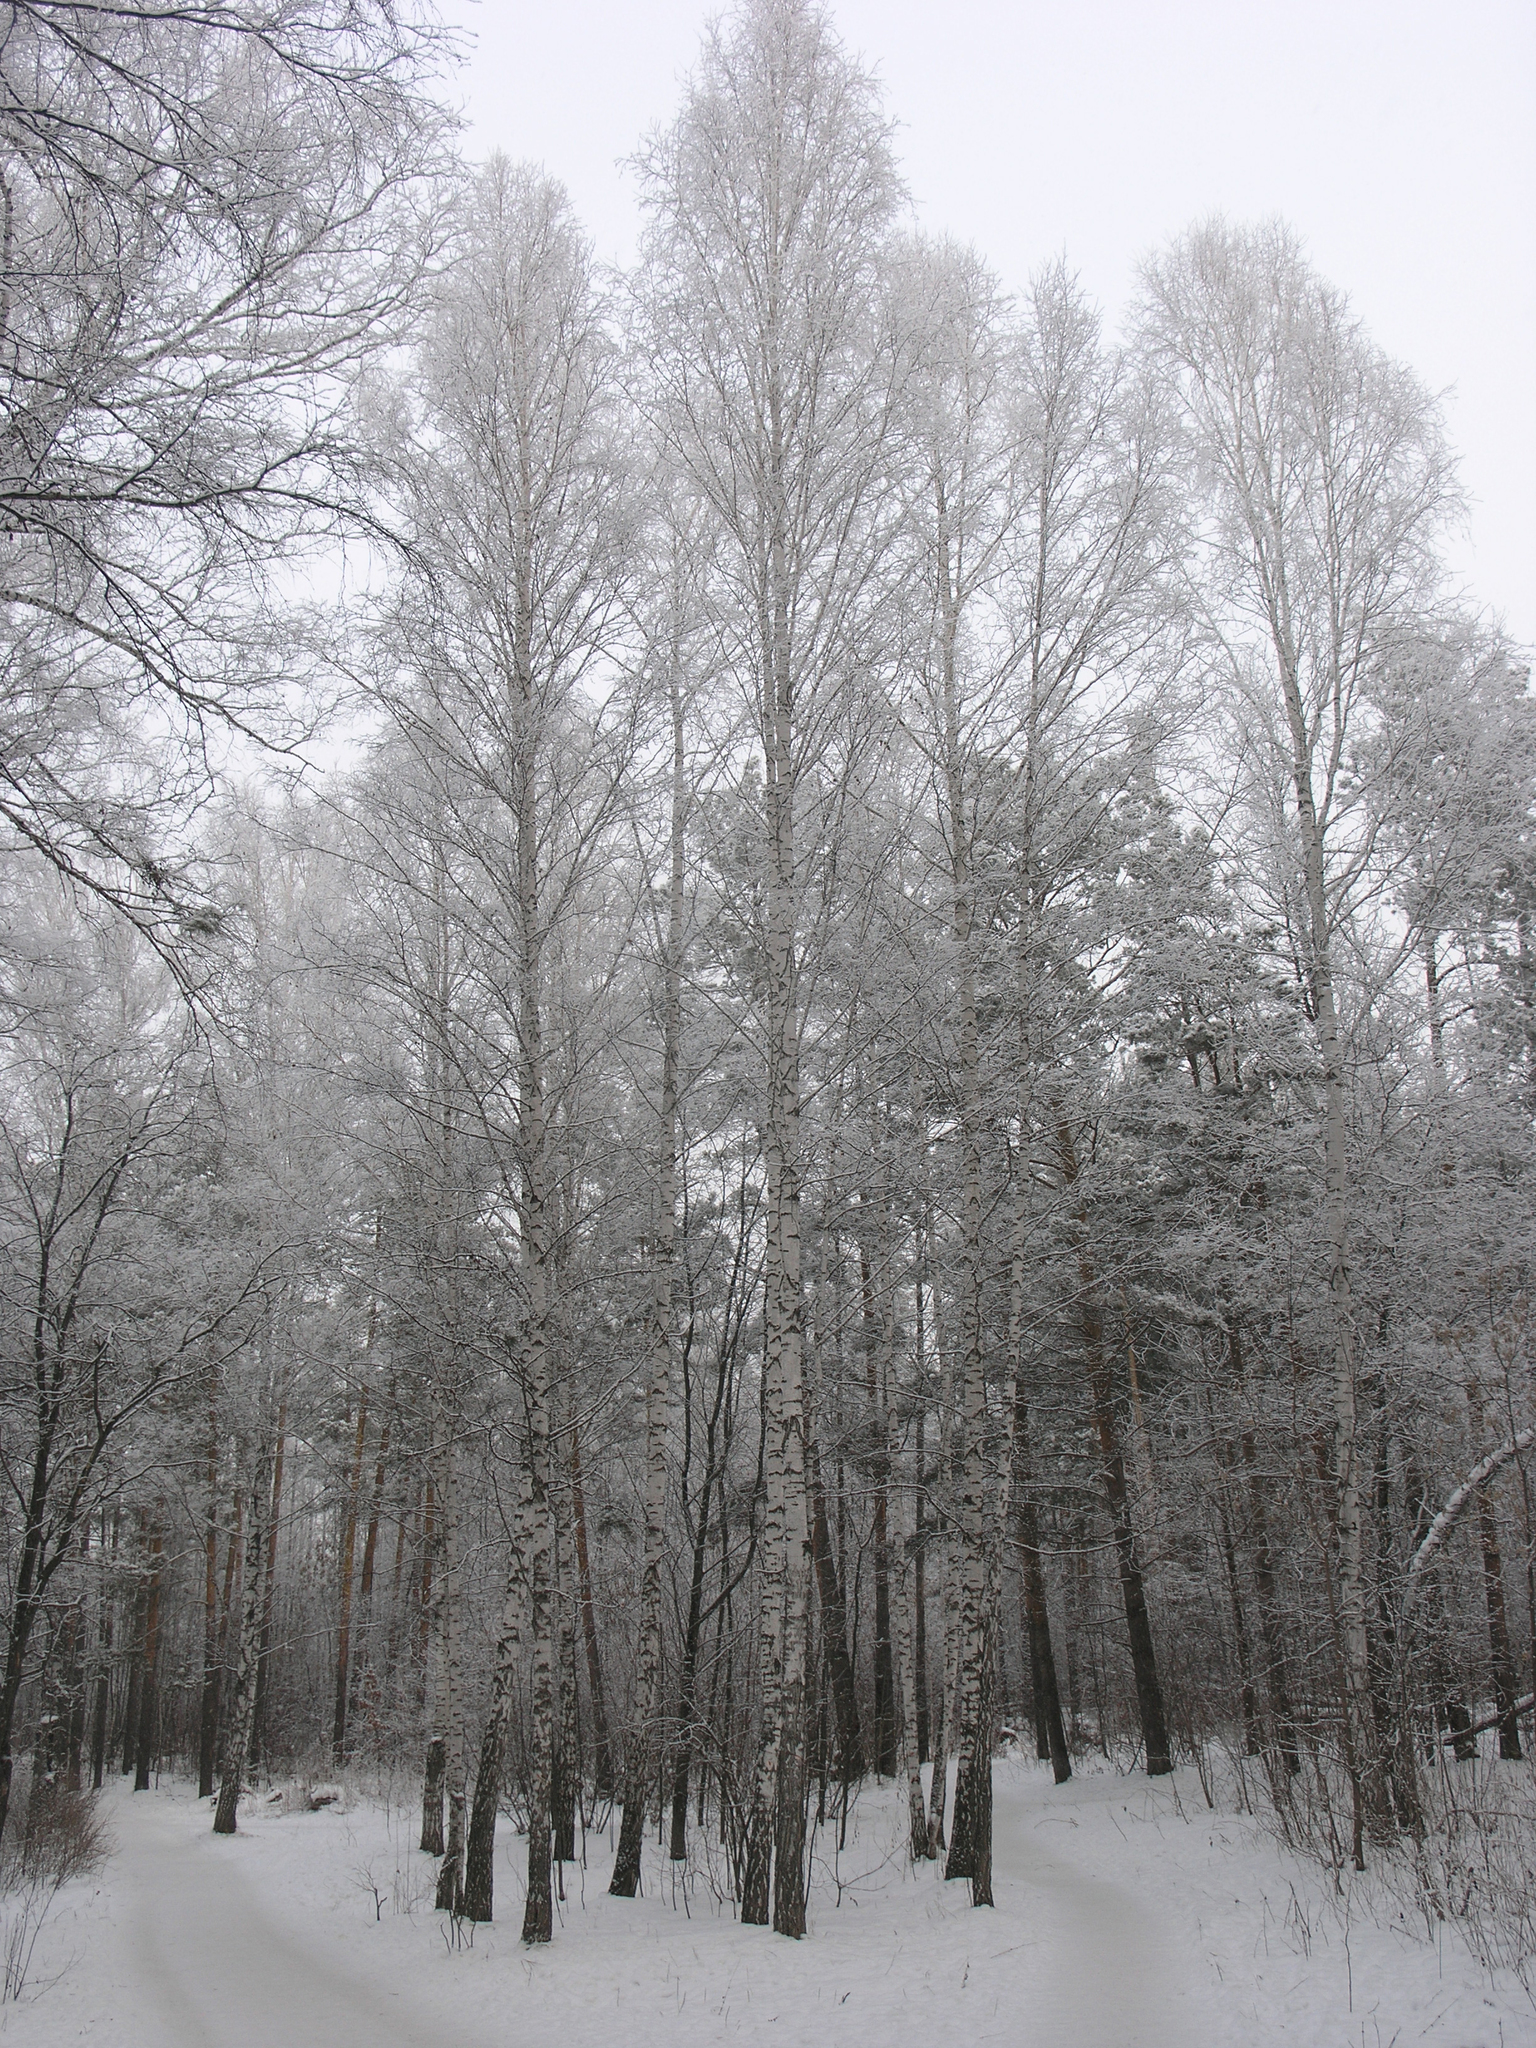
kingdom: Plantae
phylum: Tracheophyta
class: Magnoliopsida
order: Fagales
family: Betulaceae
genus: Betula
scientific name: Betula pendula
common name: Silver birch
